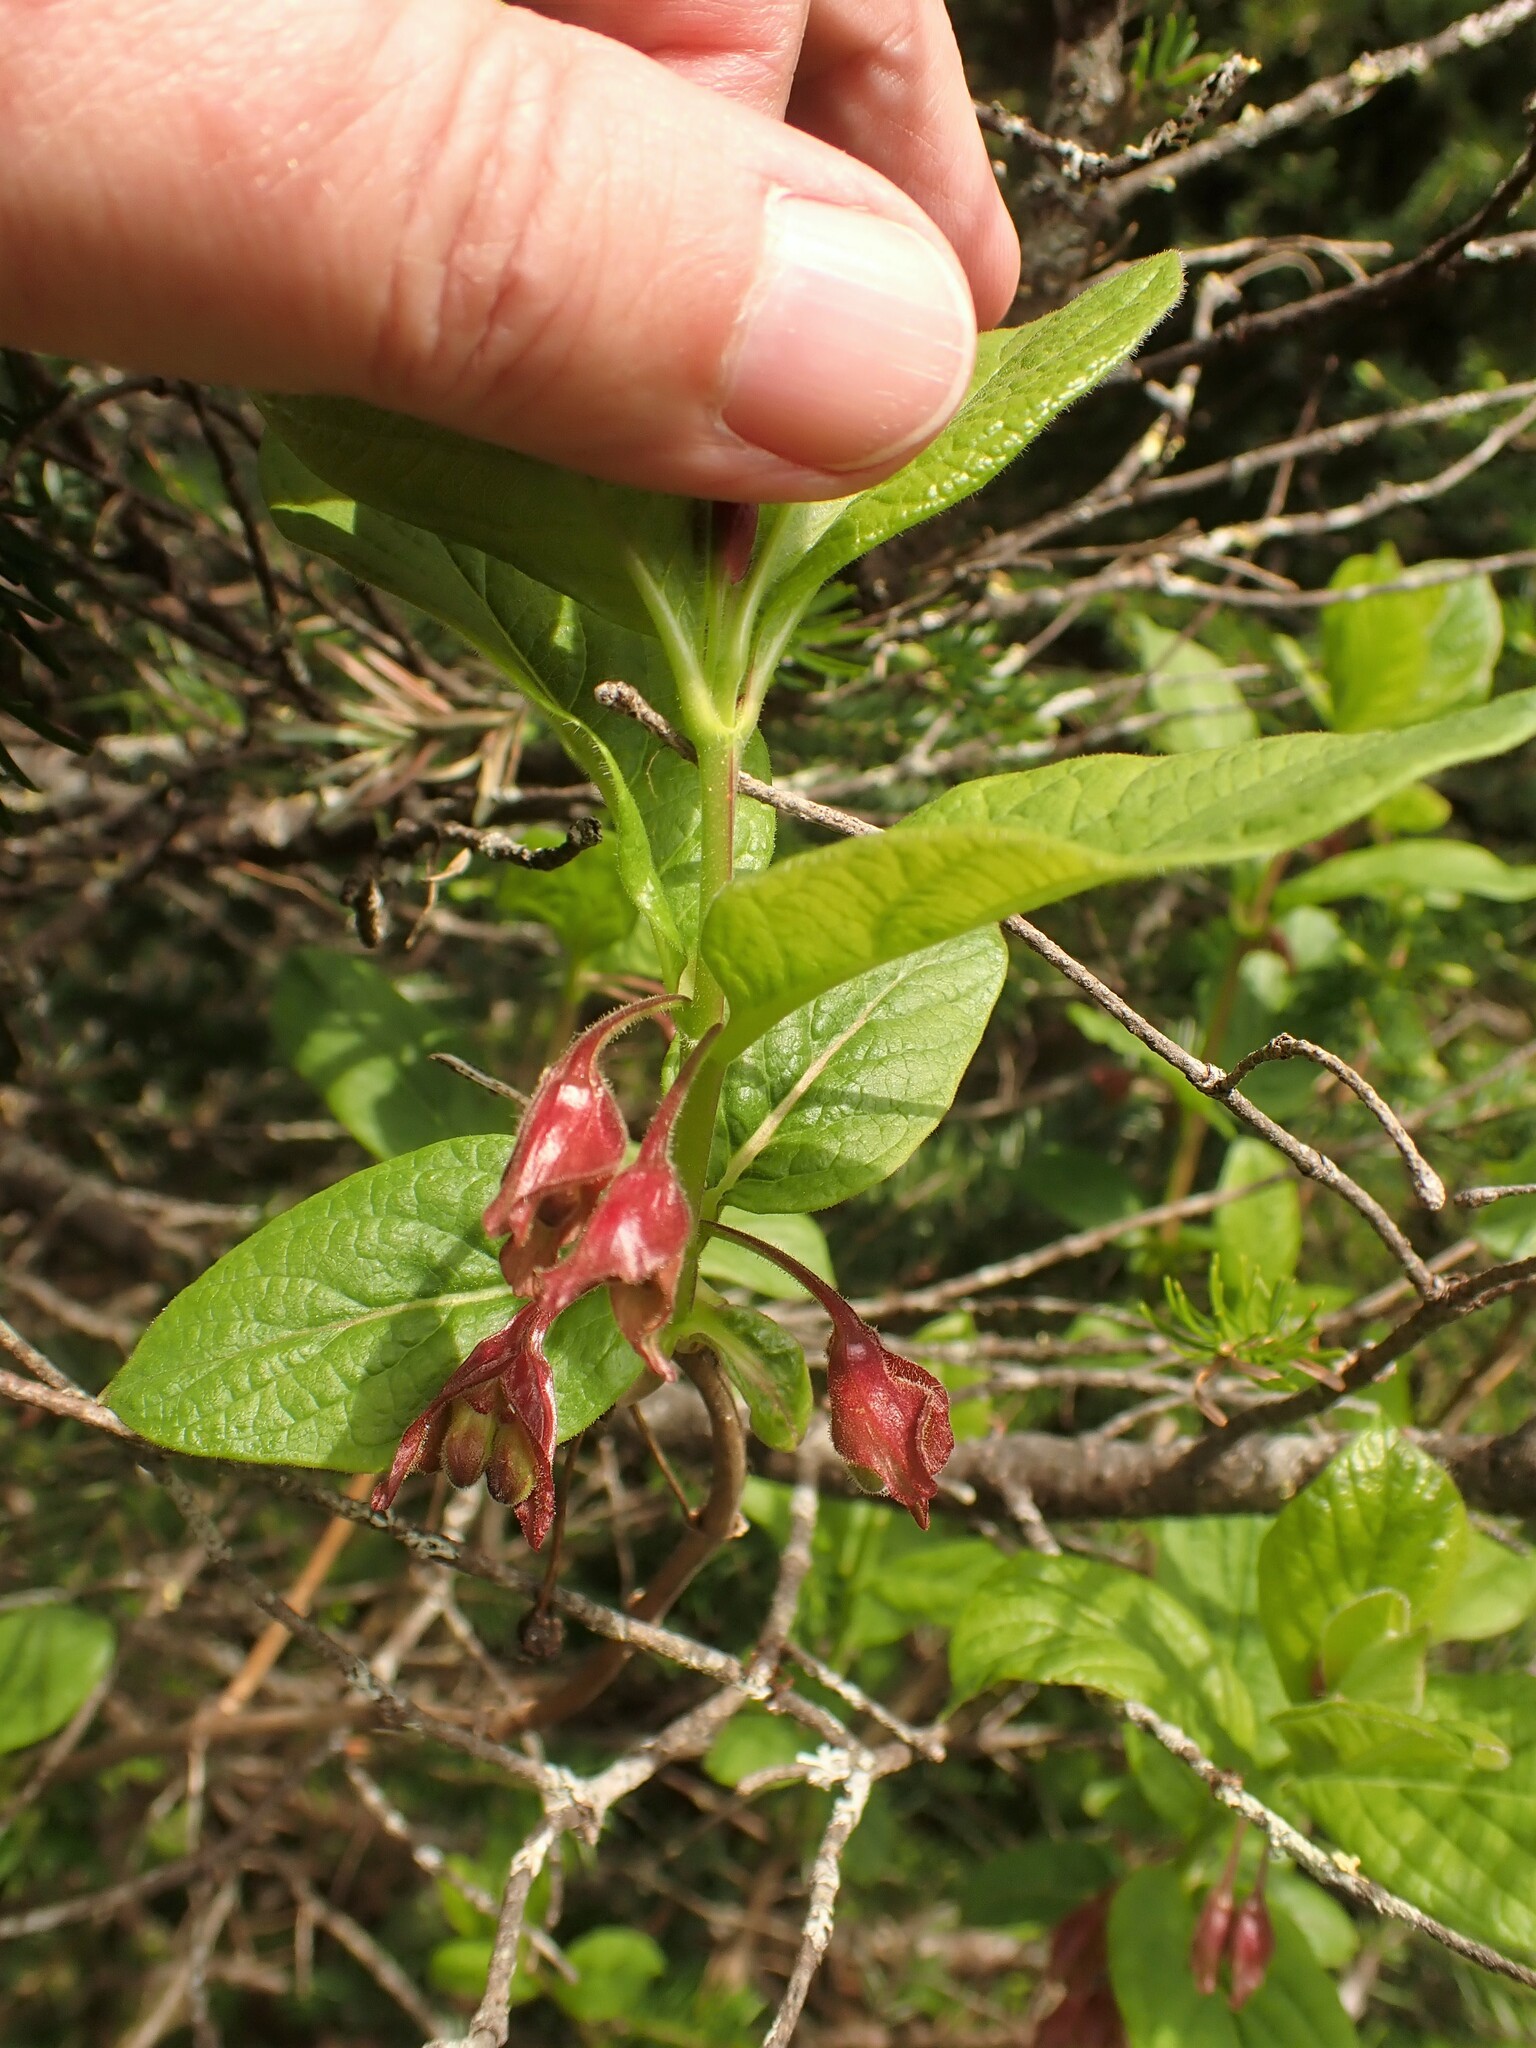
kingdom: Plantae
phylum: Tracheophyta
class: Magnoliopsida
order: Dipsacales
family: Caprifoliaceae
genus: Lonicera
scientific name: Lonicera involucrata
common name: Californian honeysuckle
